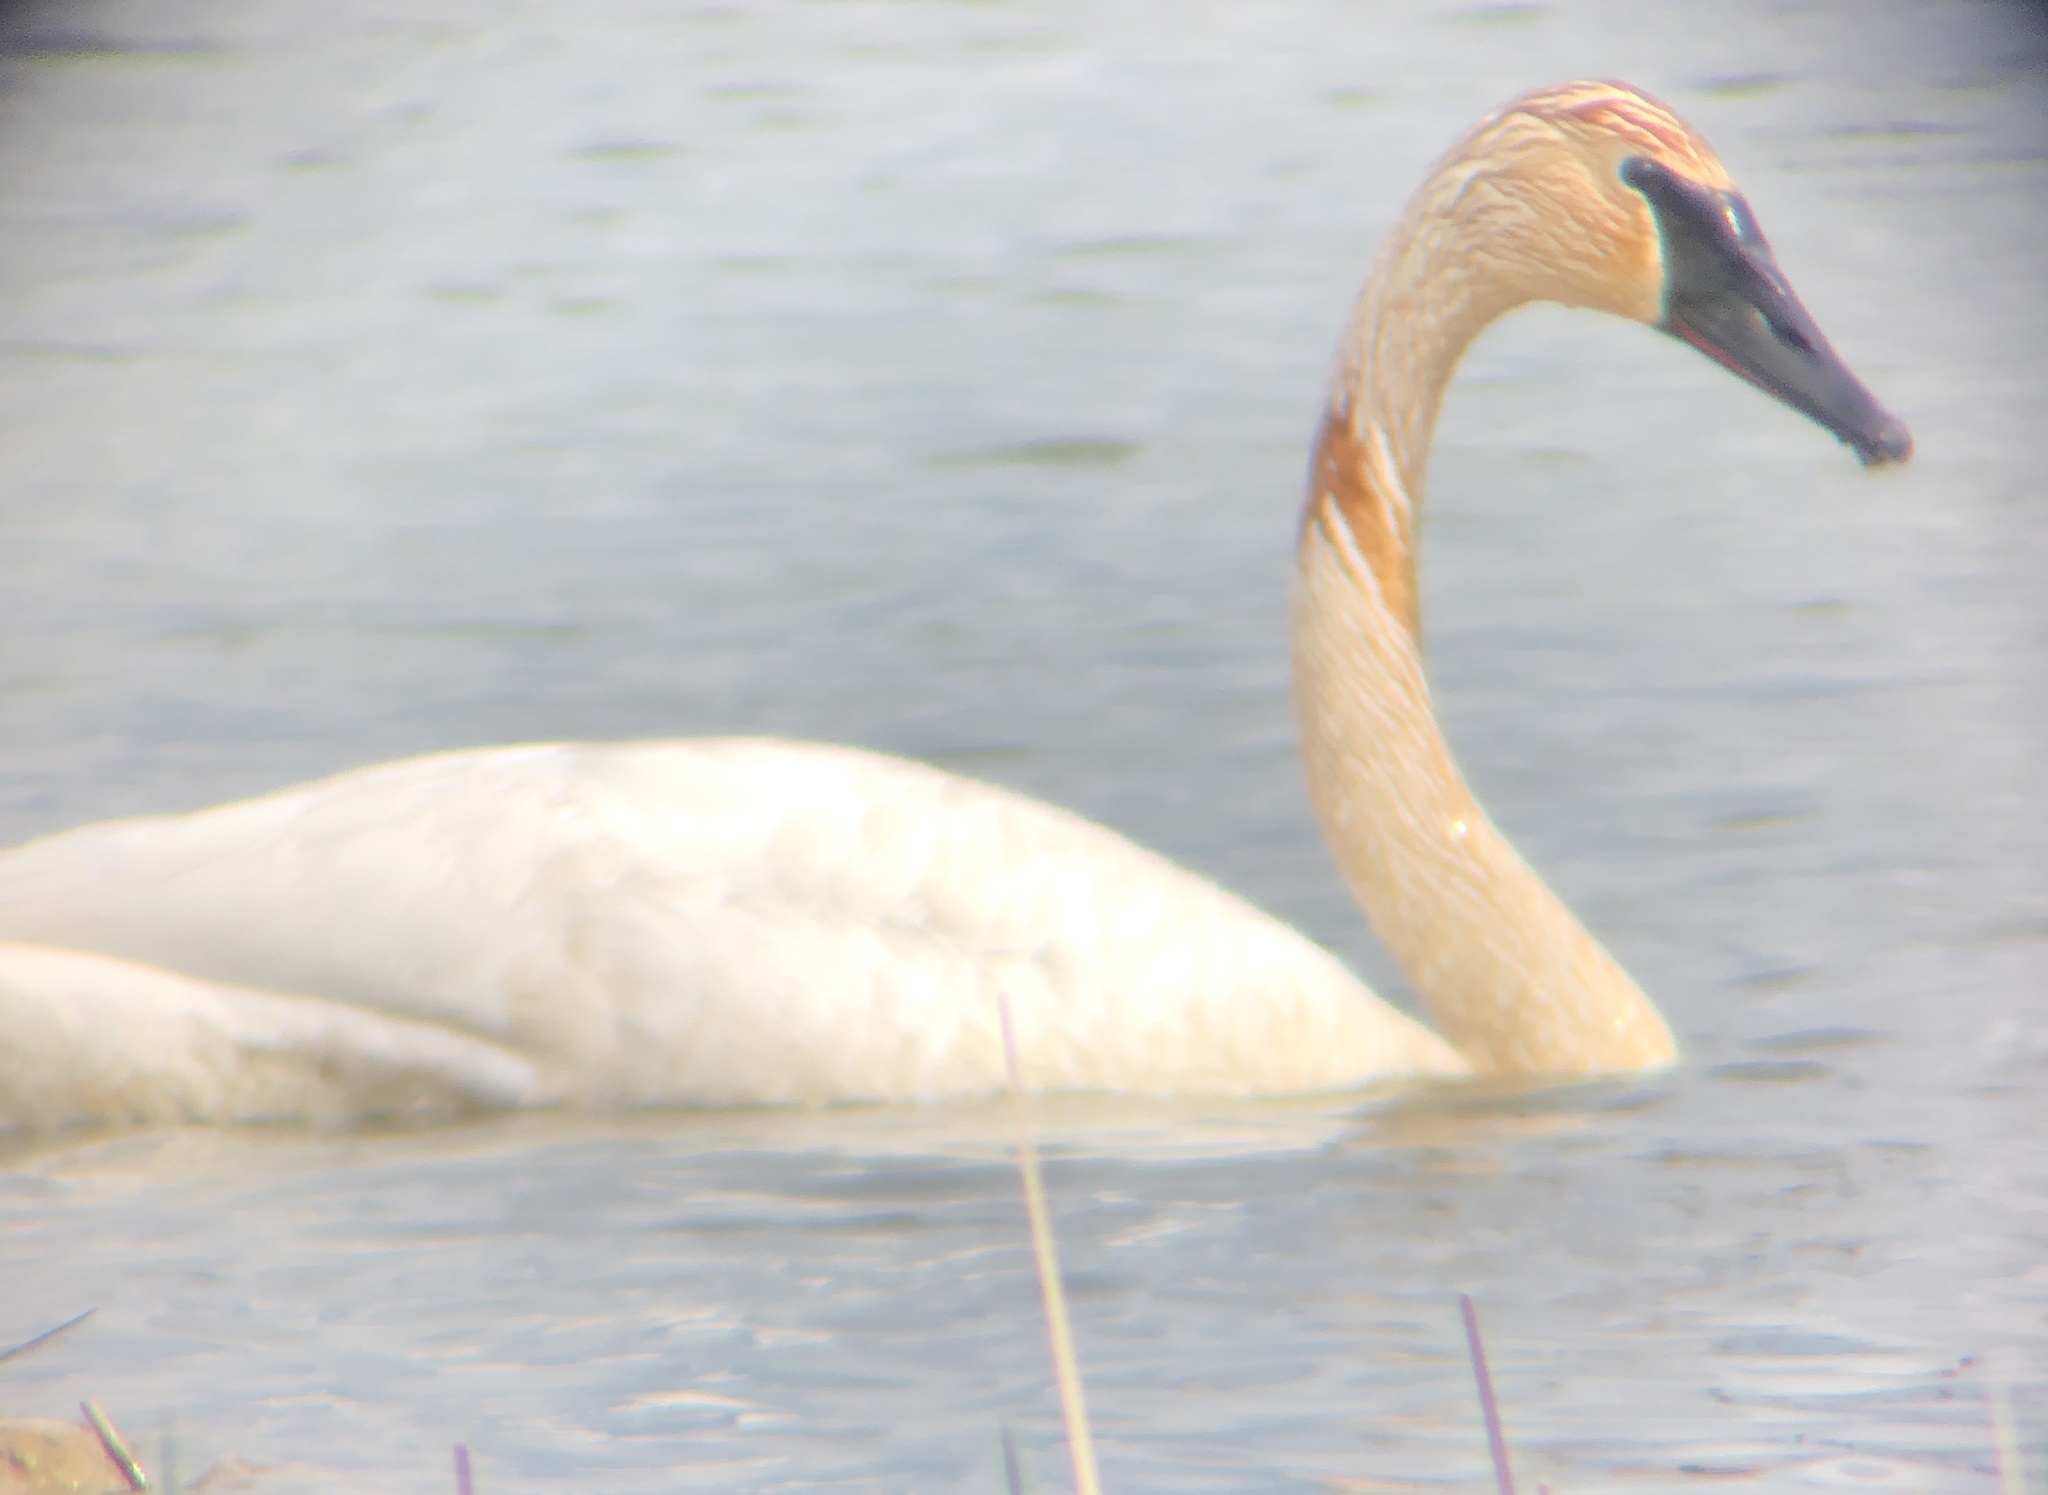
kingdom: Animalia
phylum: Chordata
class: Aves
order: Anseriformes
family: Anatidae
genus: Cygnus
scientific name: Cygnus buccinator
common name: Trumpeter swan
